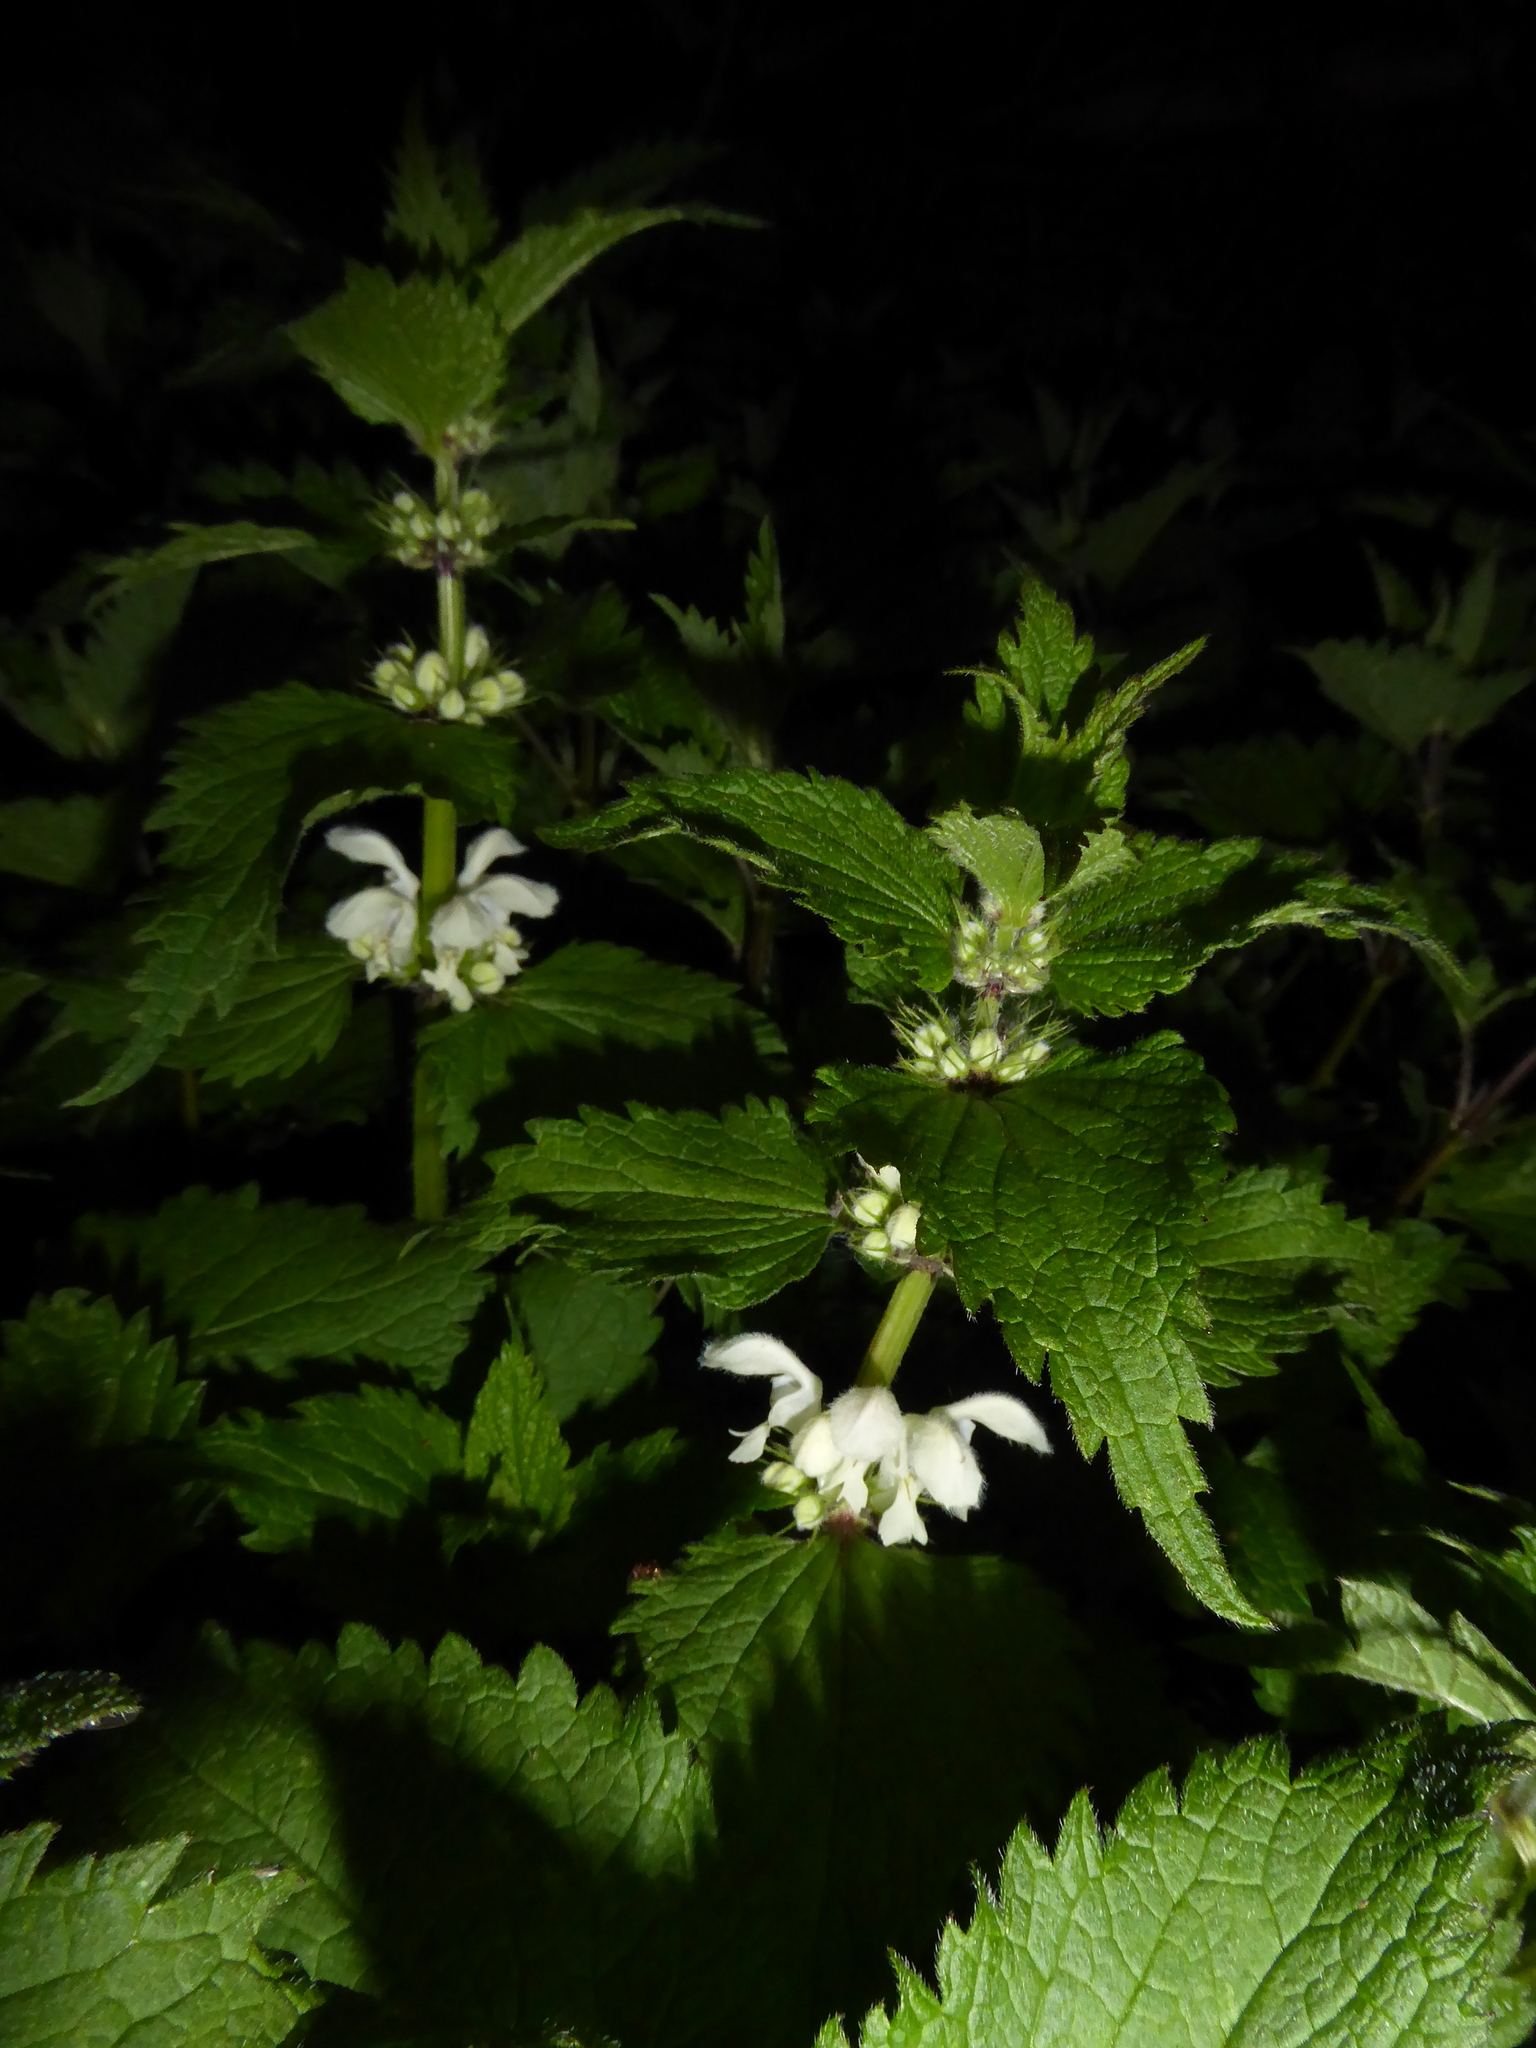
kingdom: Plantae
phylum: Tracheophyta
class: Magnoliopsida
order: Lamiales
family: Lamiaceae
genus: Lamium
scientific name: Lamium album
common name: White dead-nettle
